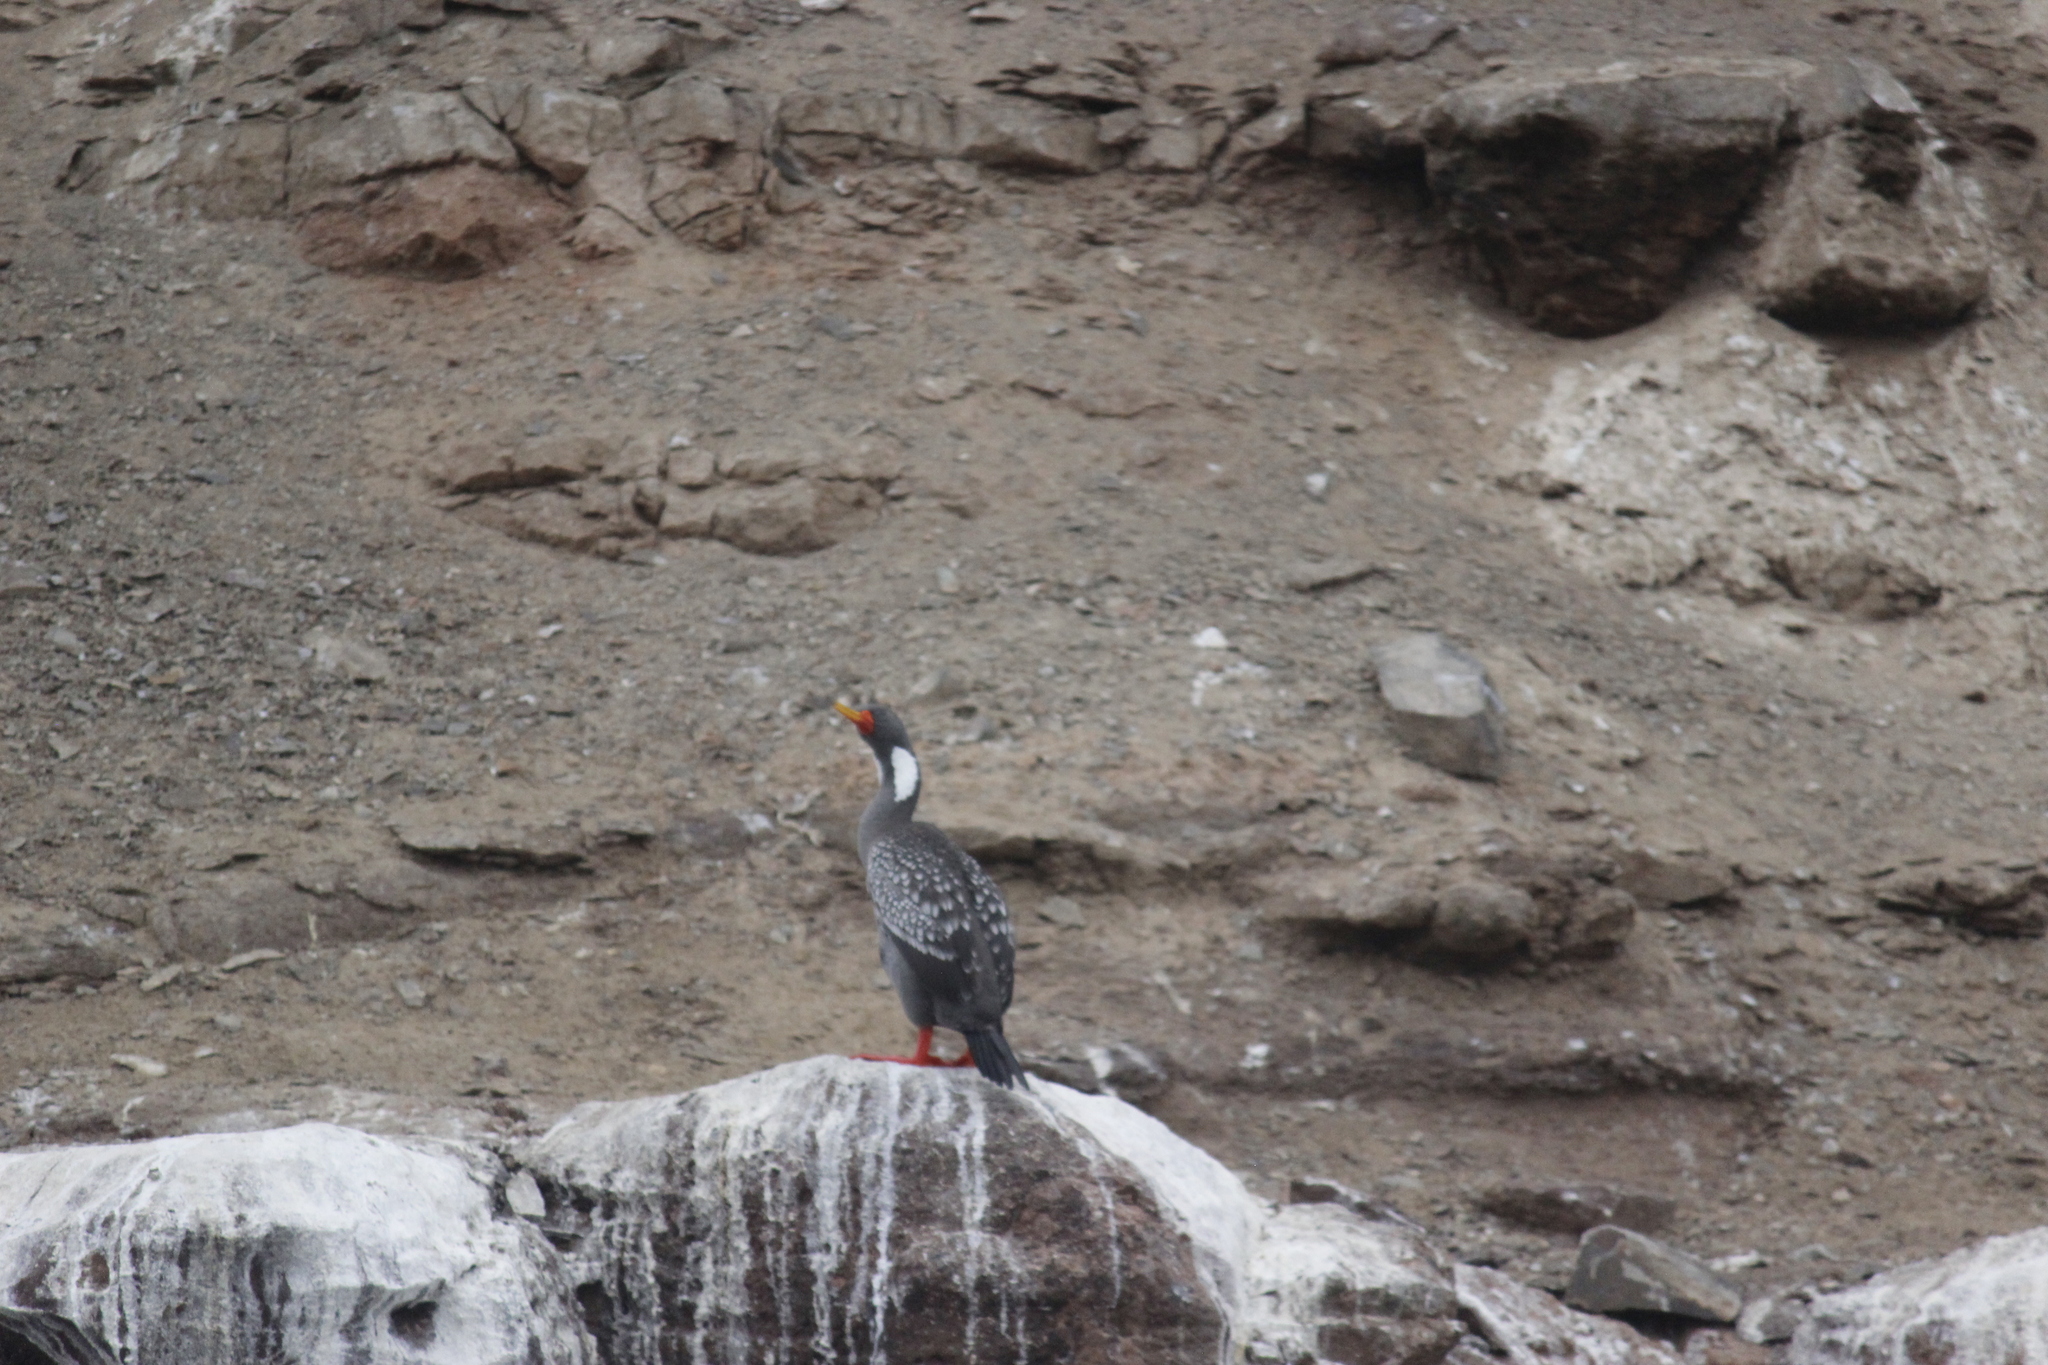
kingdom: Animalia
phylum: Chordata
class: Aves
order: Suliformes
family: Phalacrocoracidae
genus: Phalacrocorax
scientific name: Phalacrocorax gaimardi
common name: Red-legged cormorant
